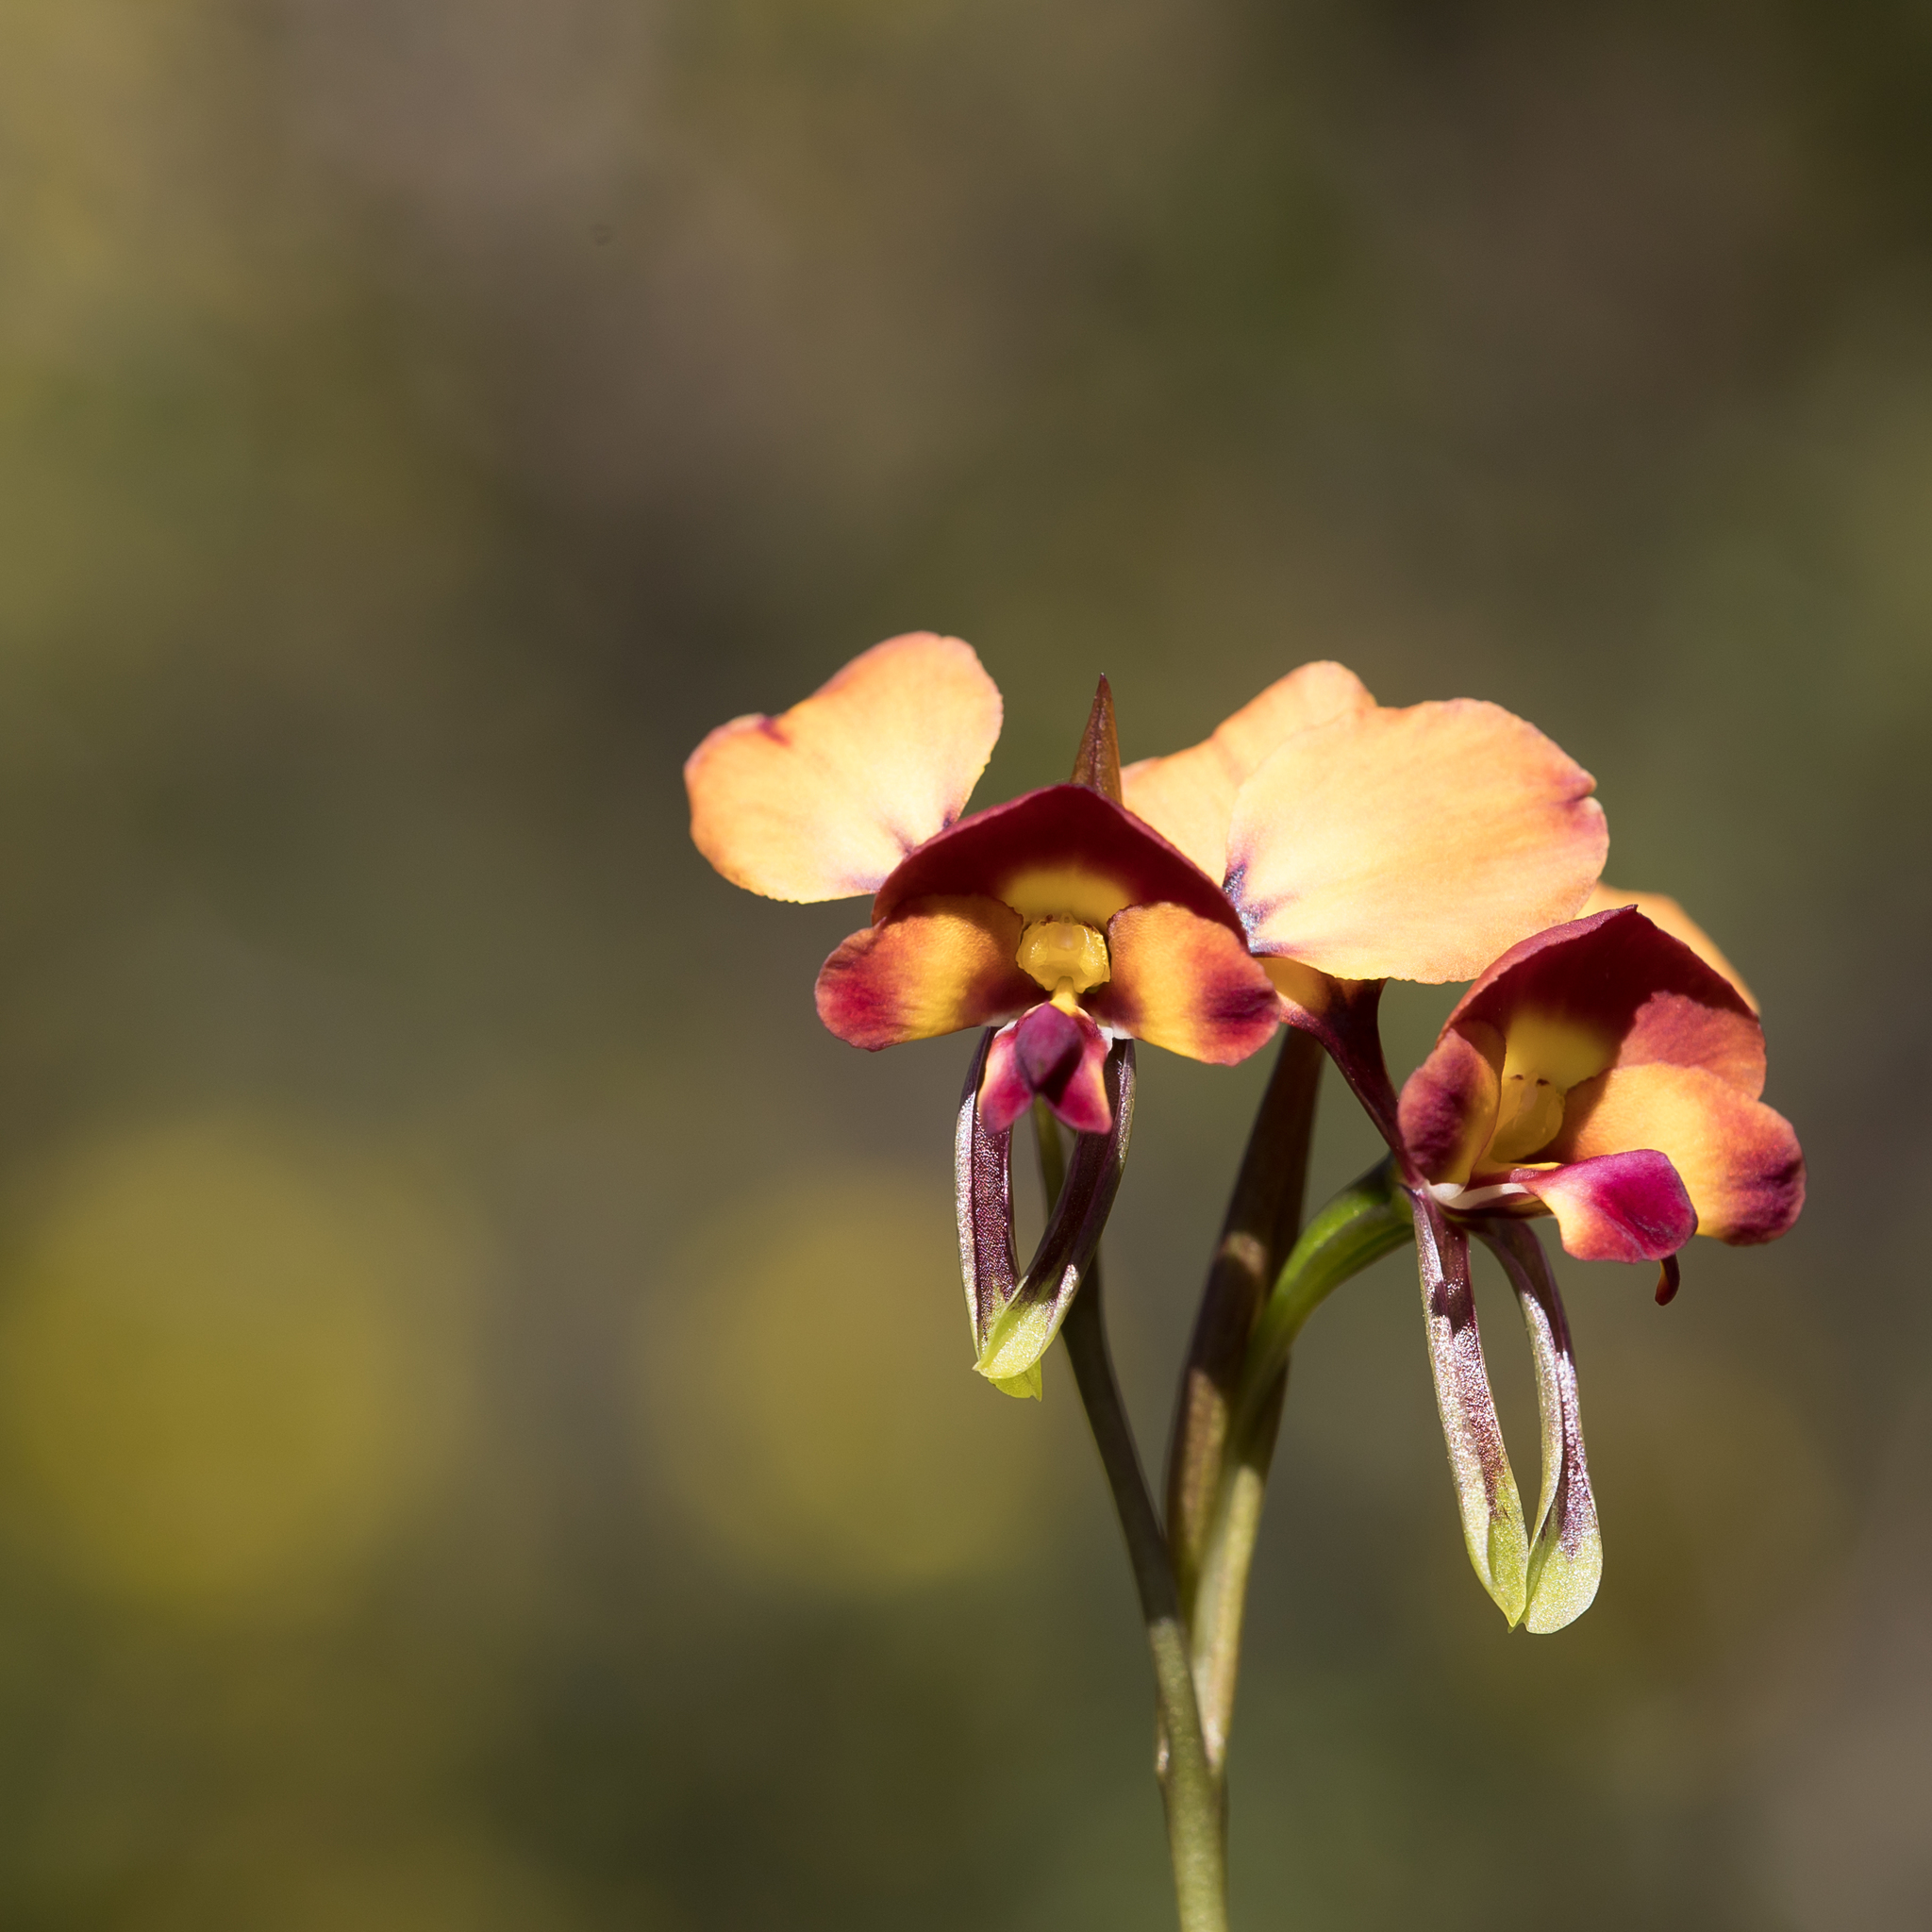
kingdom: Plantae
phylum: Tracheophyta
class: Liliopsida
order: Asparagales
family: Orchidaceae
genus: Diuris
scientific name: Diuris orientis
